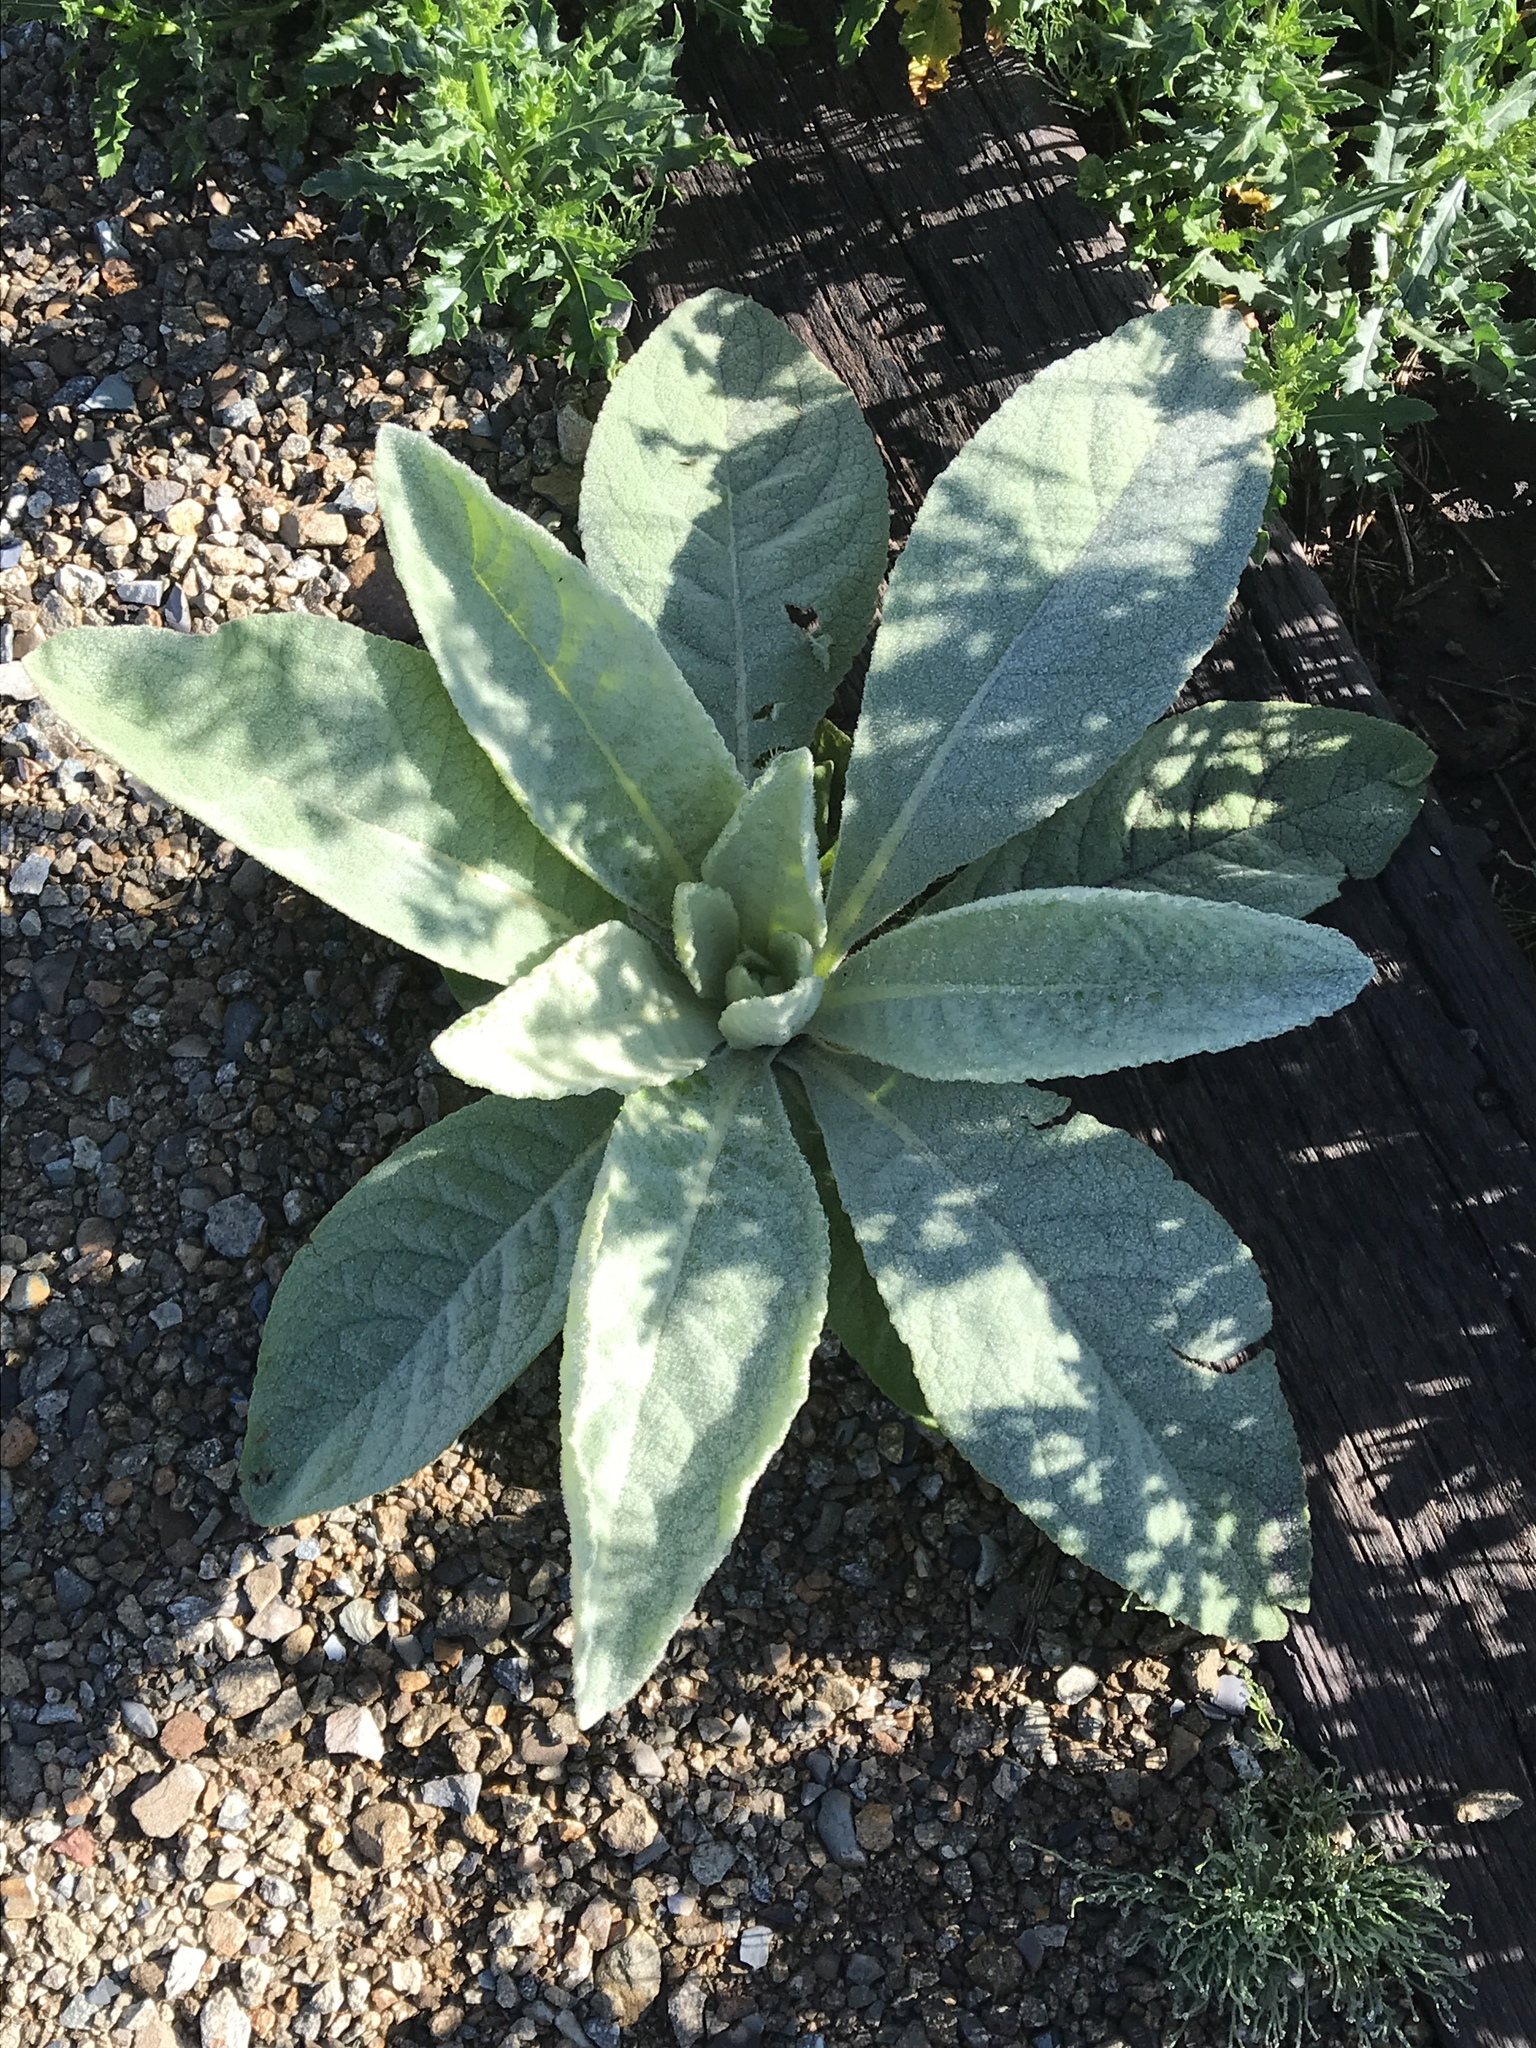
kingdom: Plantae
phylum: Tracheophyta
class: Magnoliopsida
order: Lamiales
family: Scrophulariaceae
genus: Verbascum
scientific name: Verbascum thapsus
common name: Common mullein
